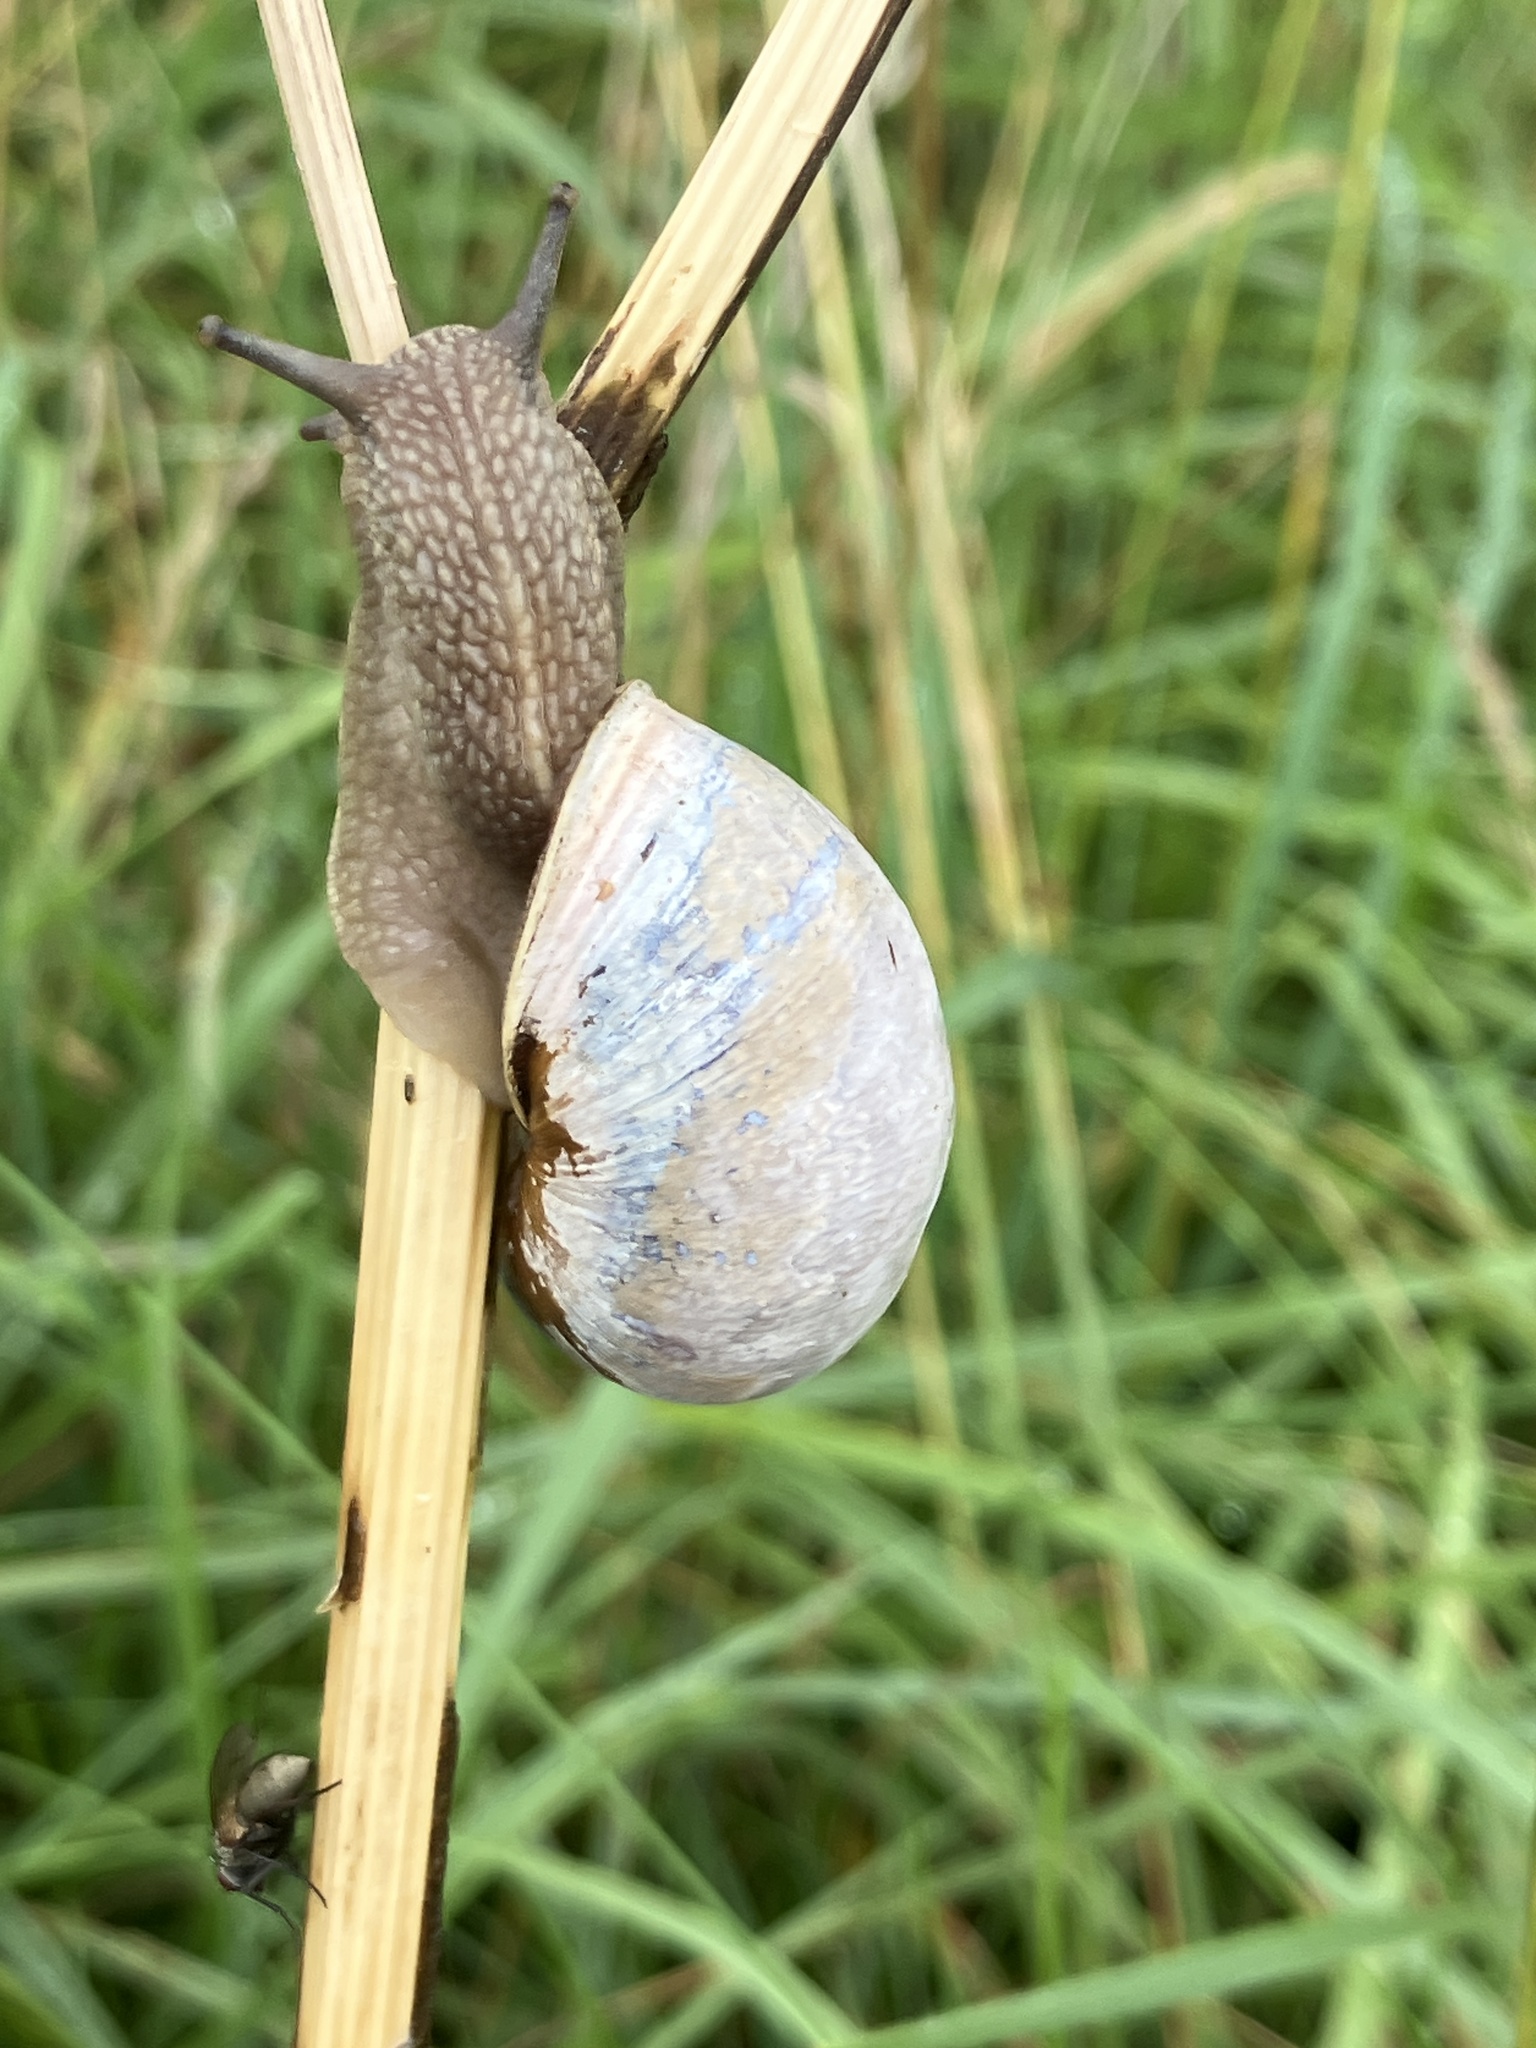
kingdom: Animalia
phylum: Mollusca
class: Gastropoda
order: Stylommatophora
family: Helicidae
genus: Cornu
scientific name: Cornu aspersum
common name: Brown garden snail
